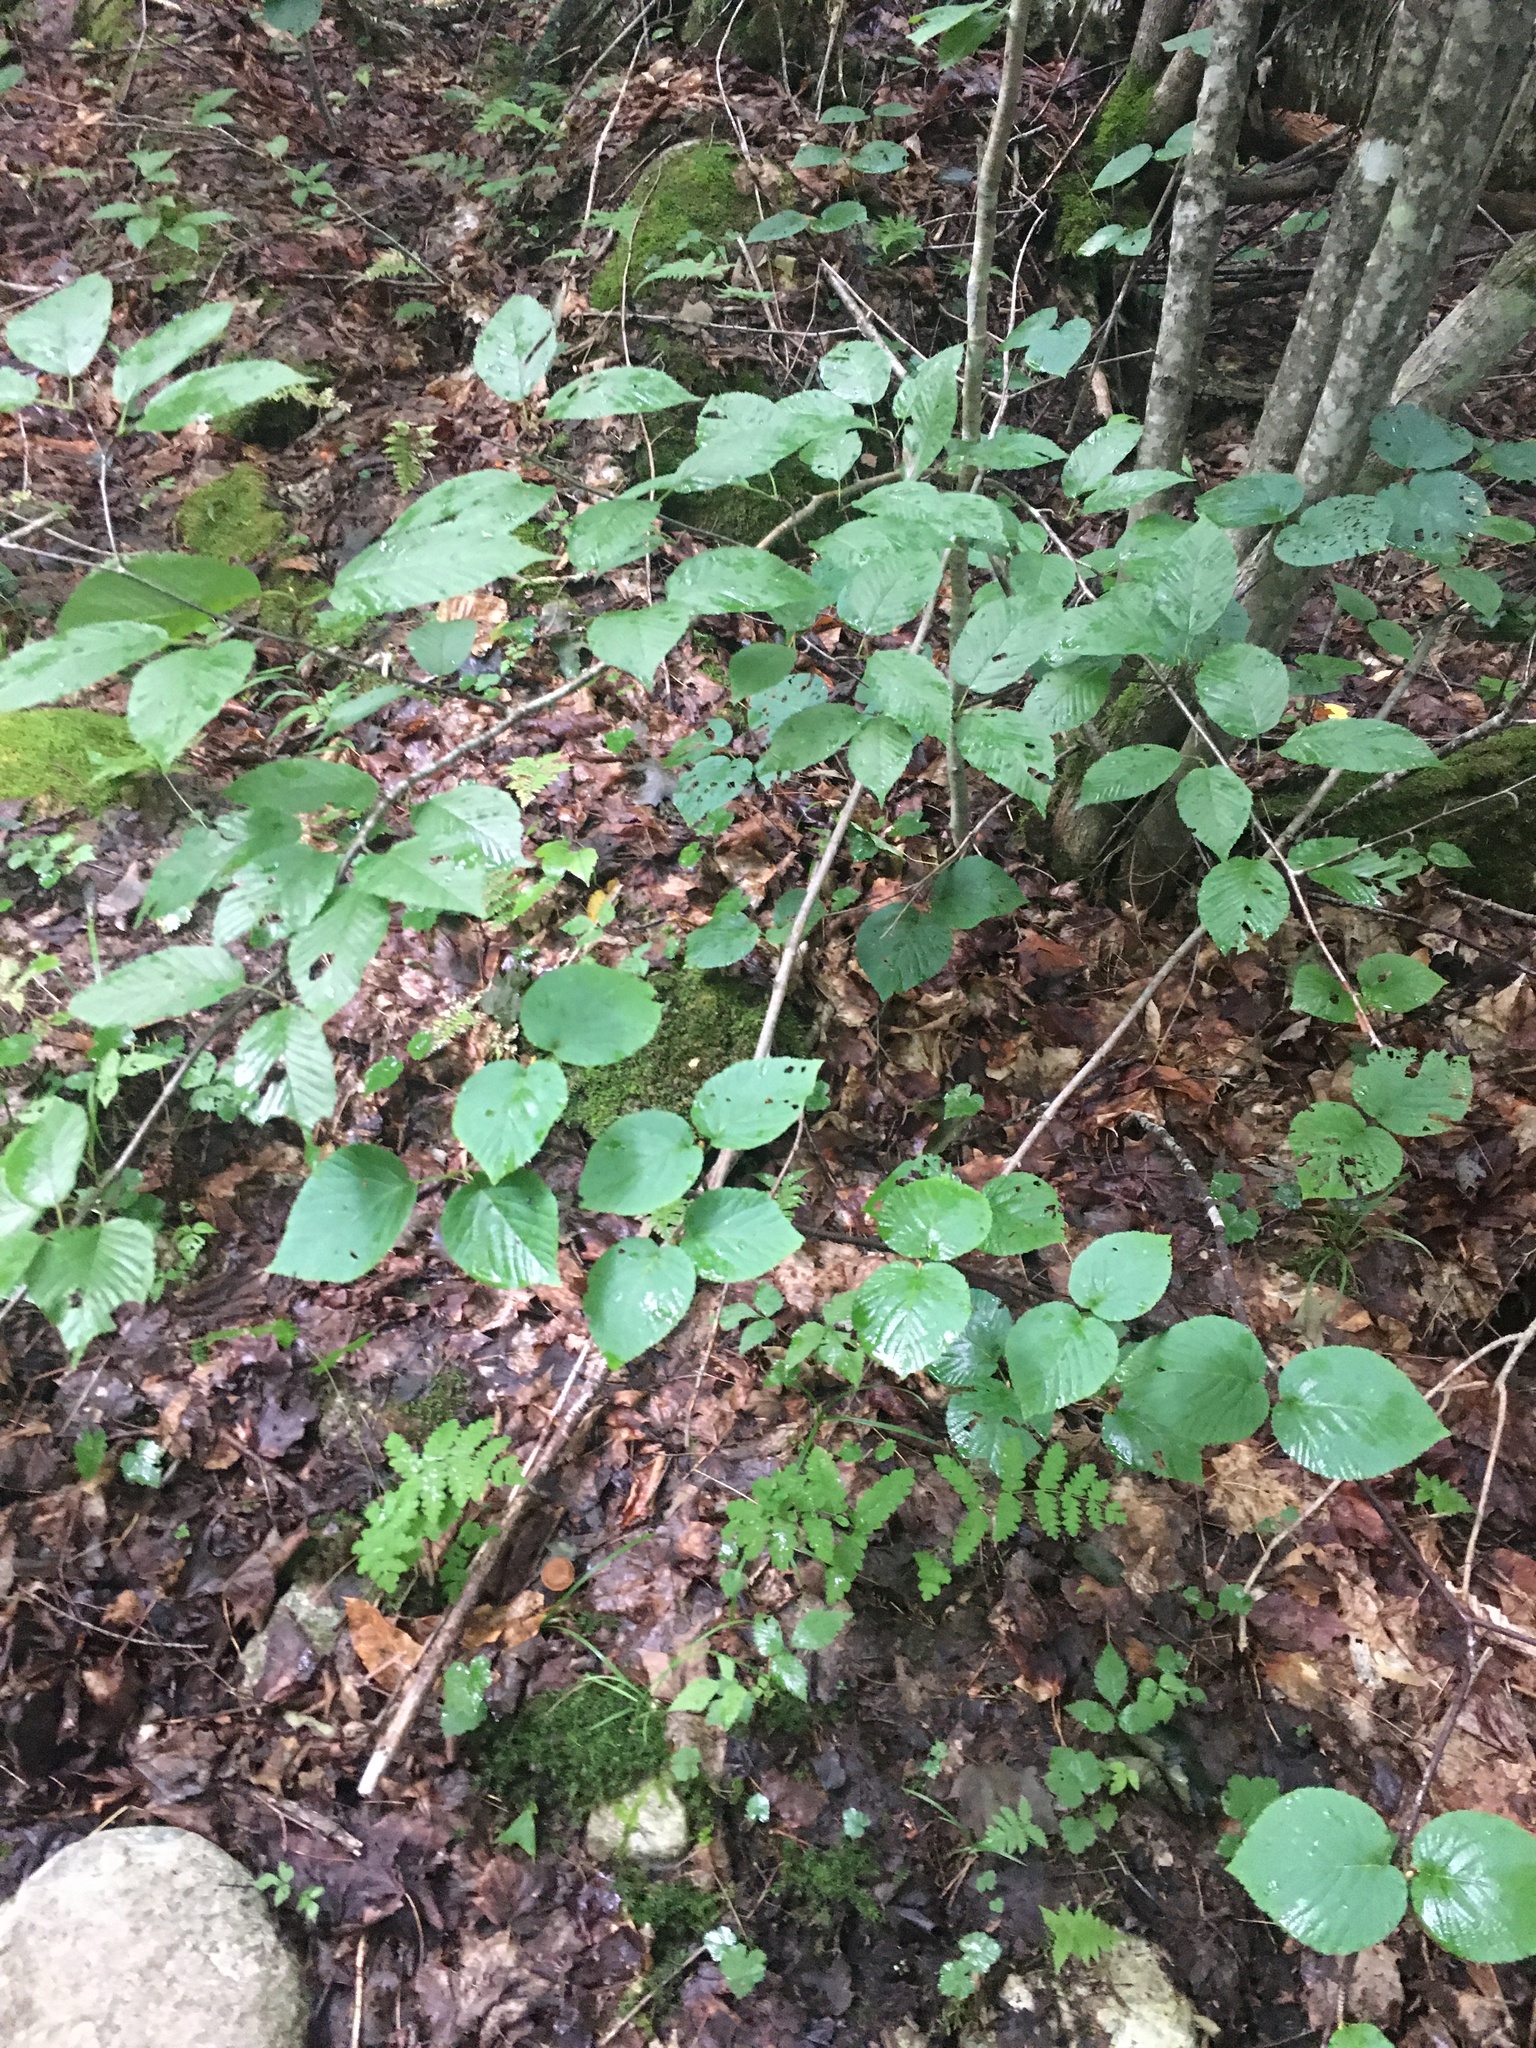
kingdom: Plantae
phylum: Tracheophyta
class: Magnoliopsida
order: Dipsacales
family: Viburnaceae
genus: Viburnum
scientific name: Viburnum lantanoides
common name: Hobblebush
